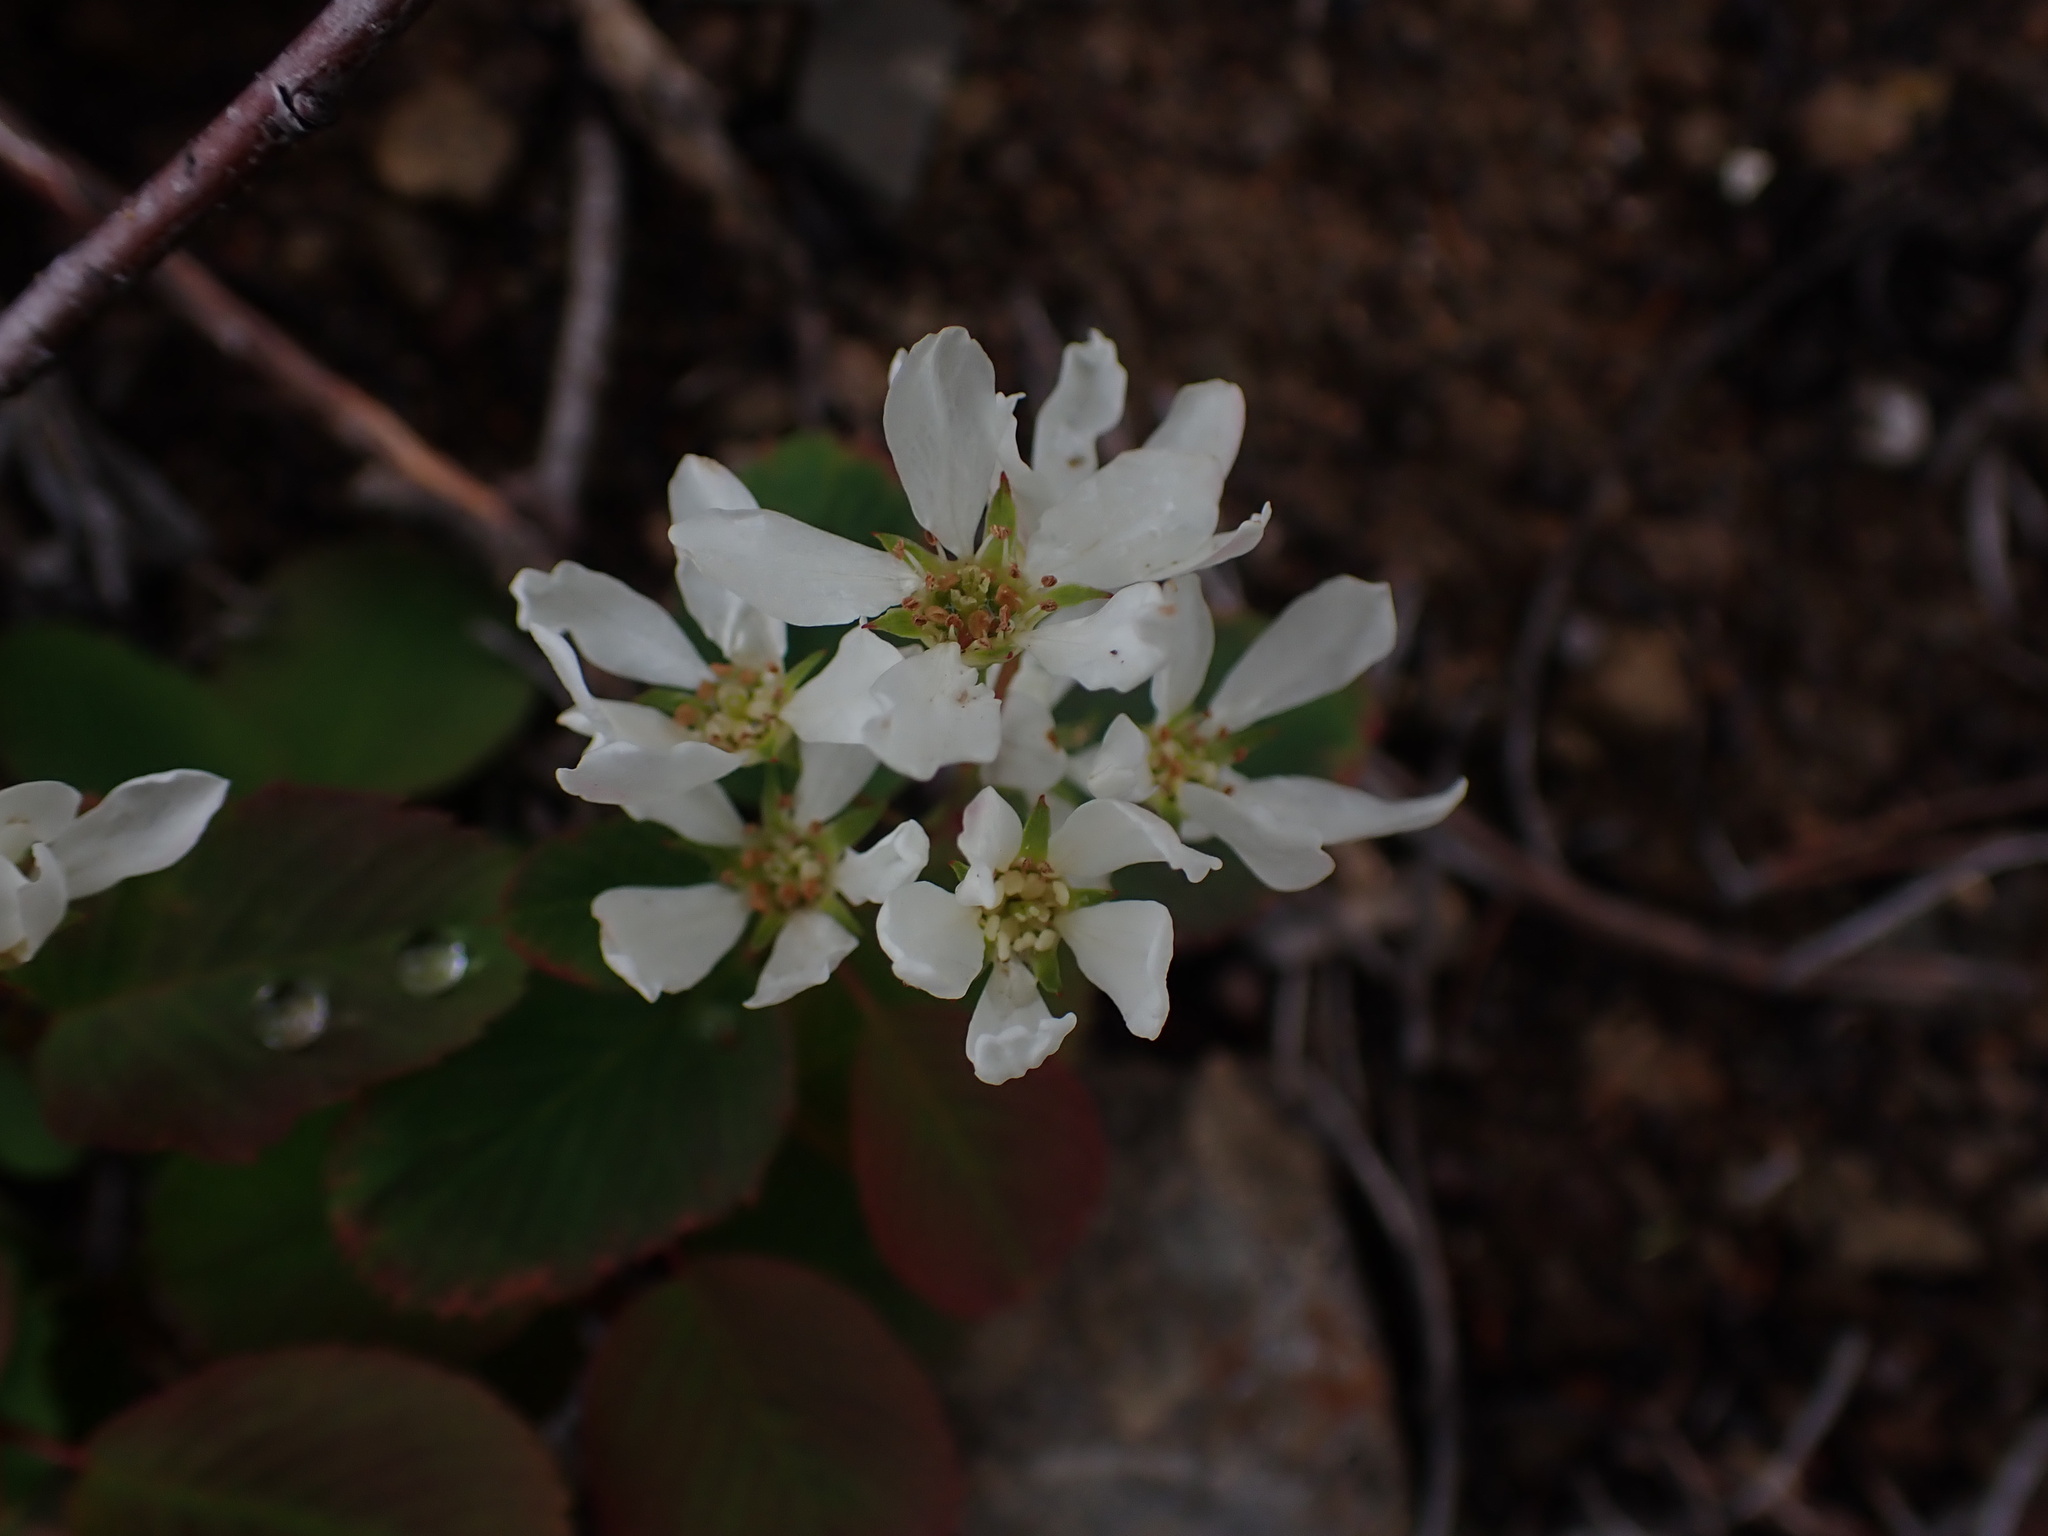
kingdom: Plantae
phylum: Tracheophyta
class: Magnoliopsida
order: Rosales
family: Rosaceae
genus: Amelanchier
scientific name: Amelanchier alnifolia
